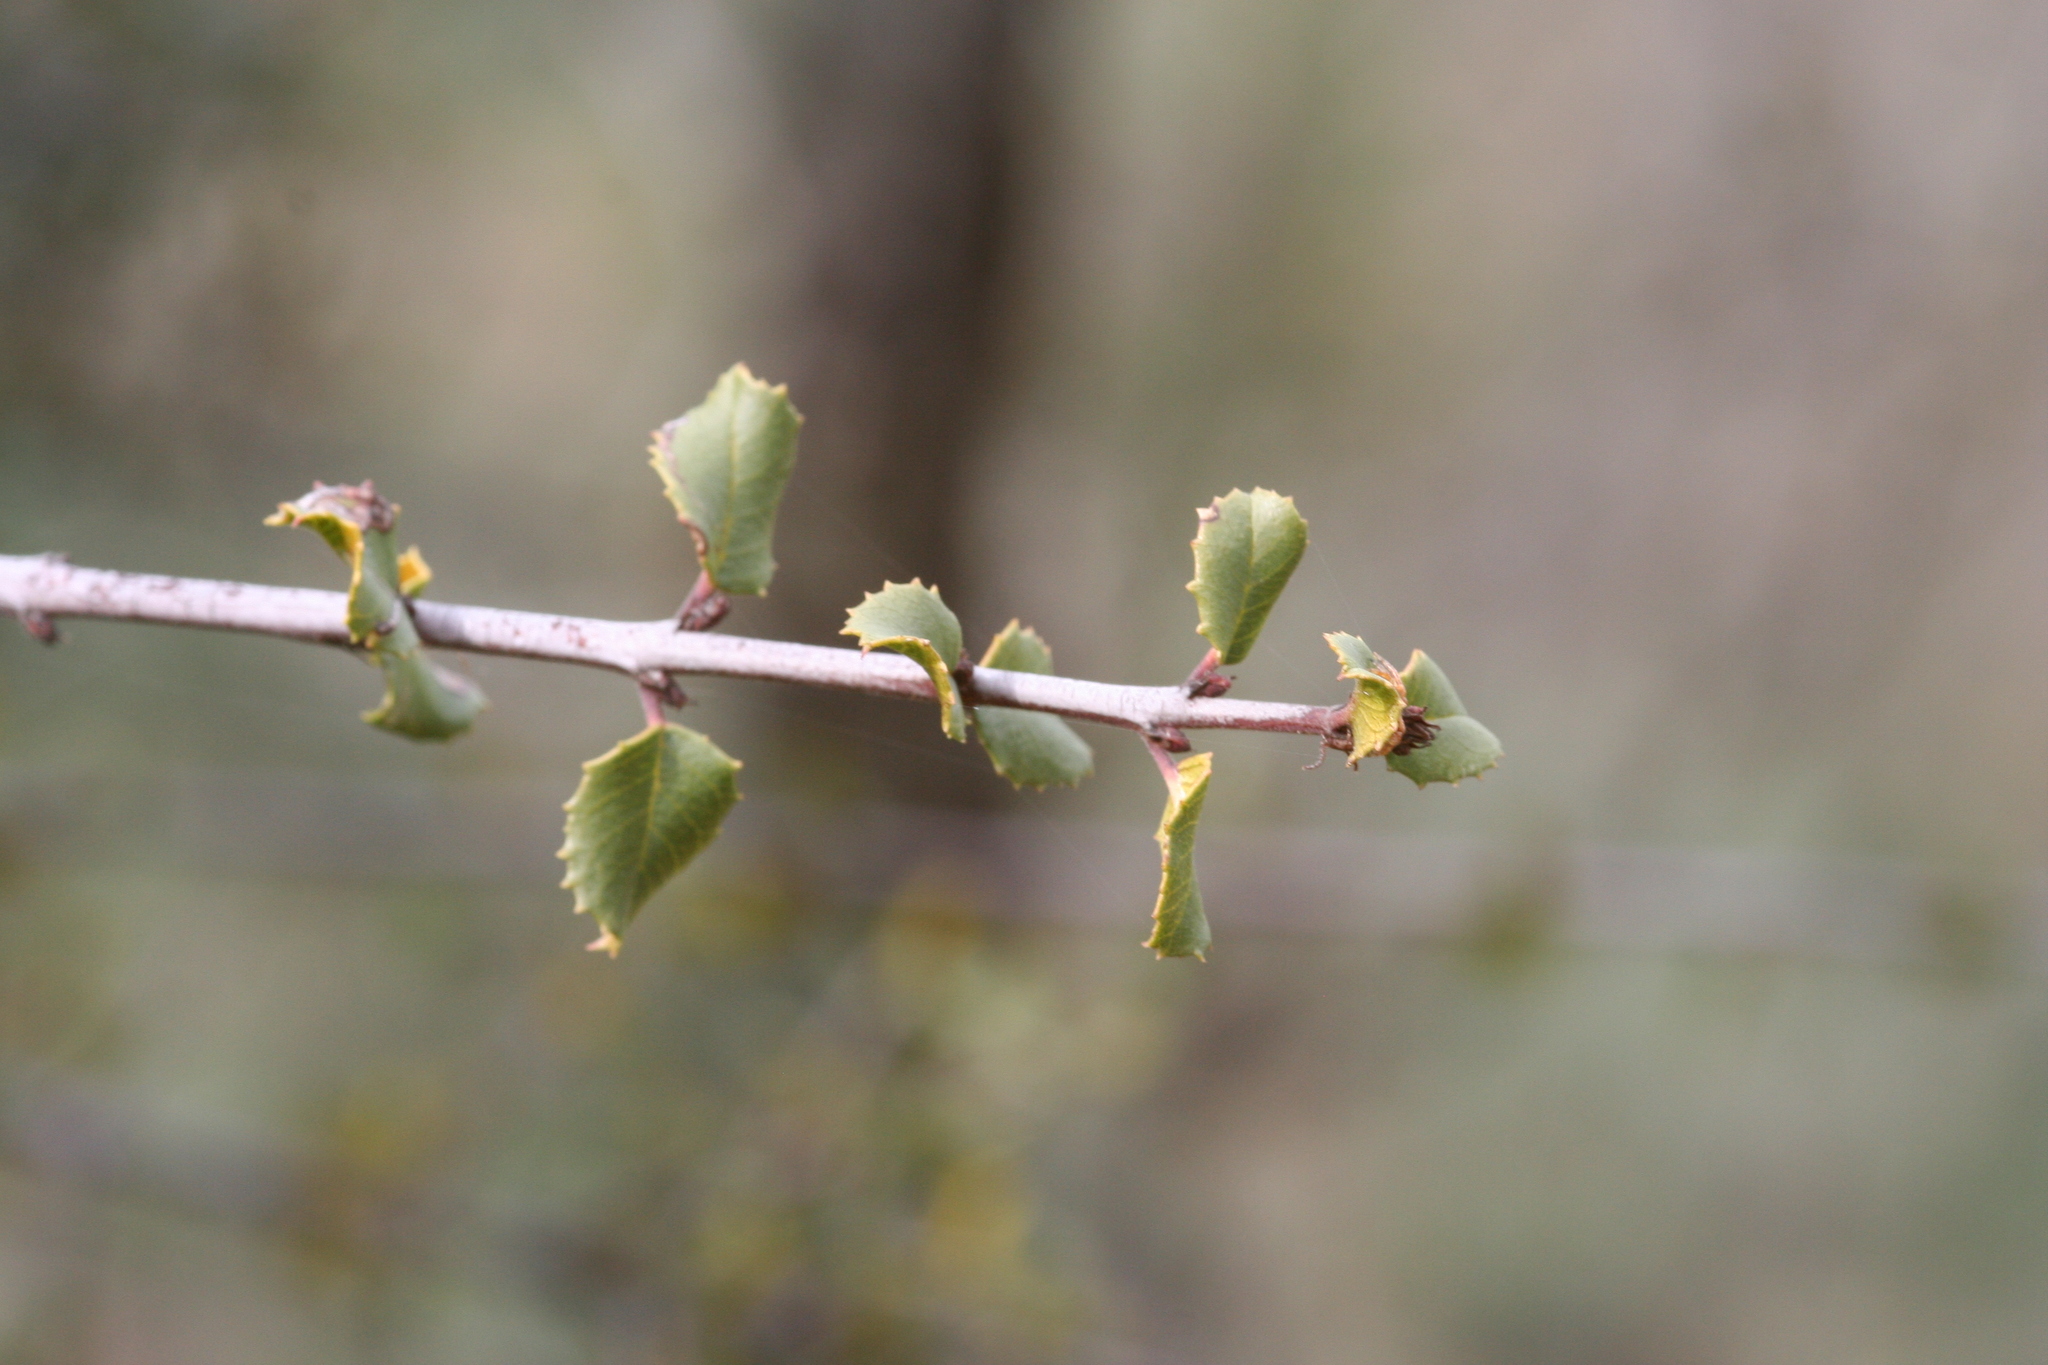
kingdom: Plantae
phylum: Tracheophyta
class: Magnoliopsida
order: Fagales
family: Fagaceae
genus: Quercus
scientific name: Quercus berberidifolia
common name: California scrub oak
